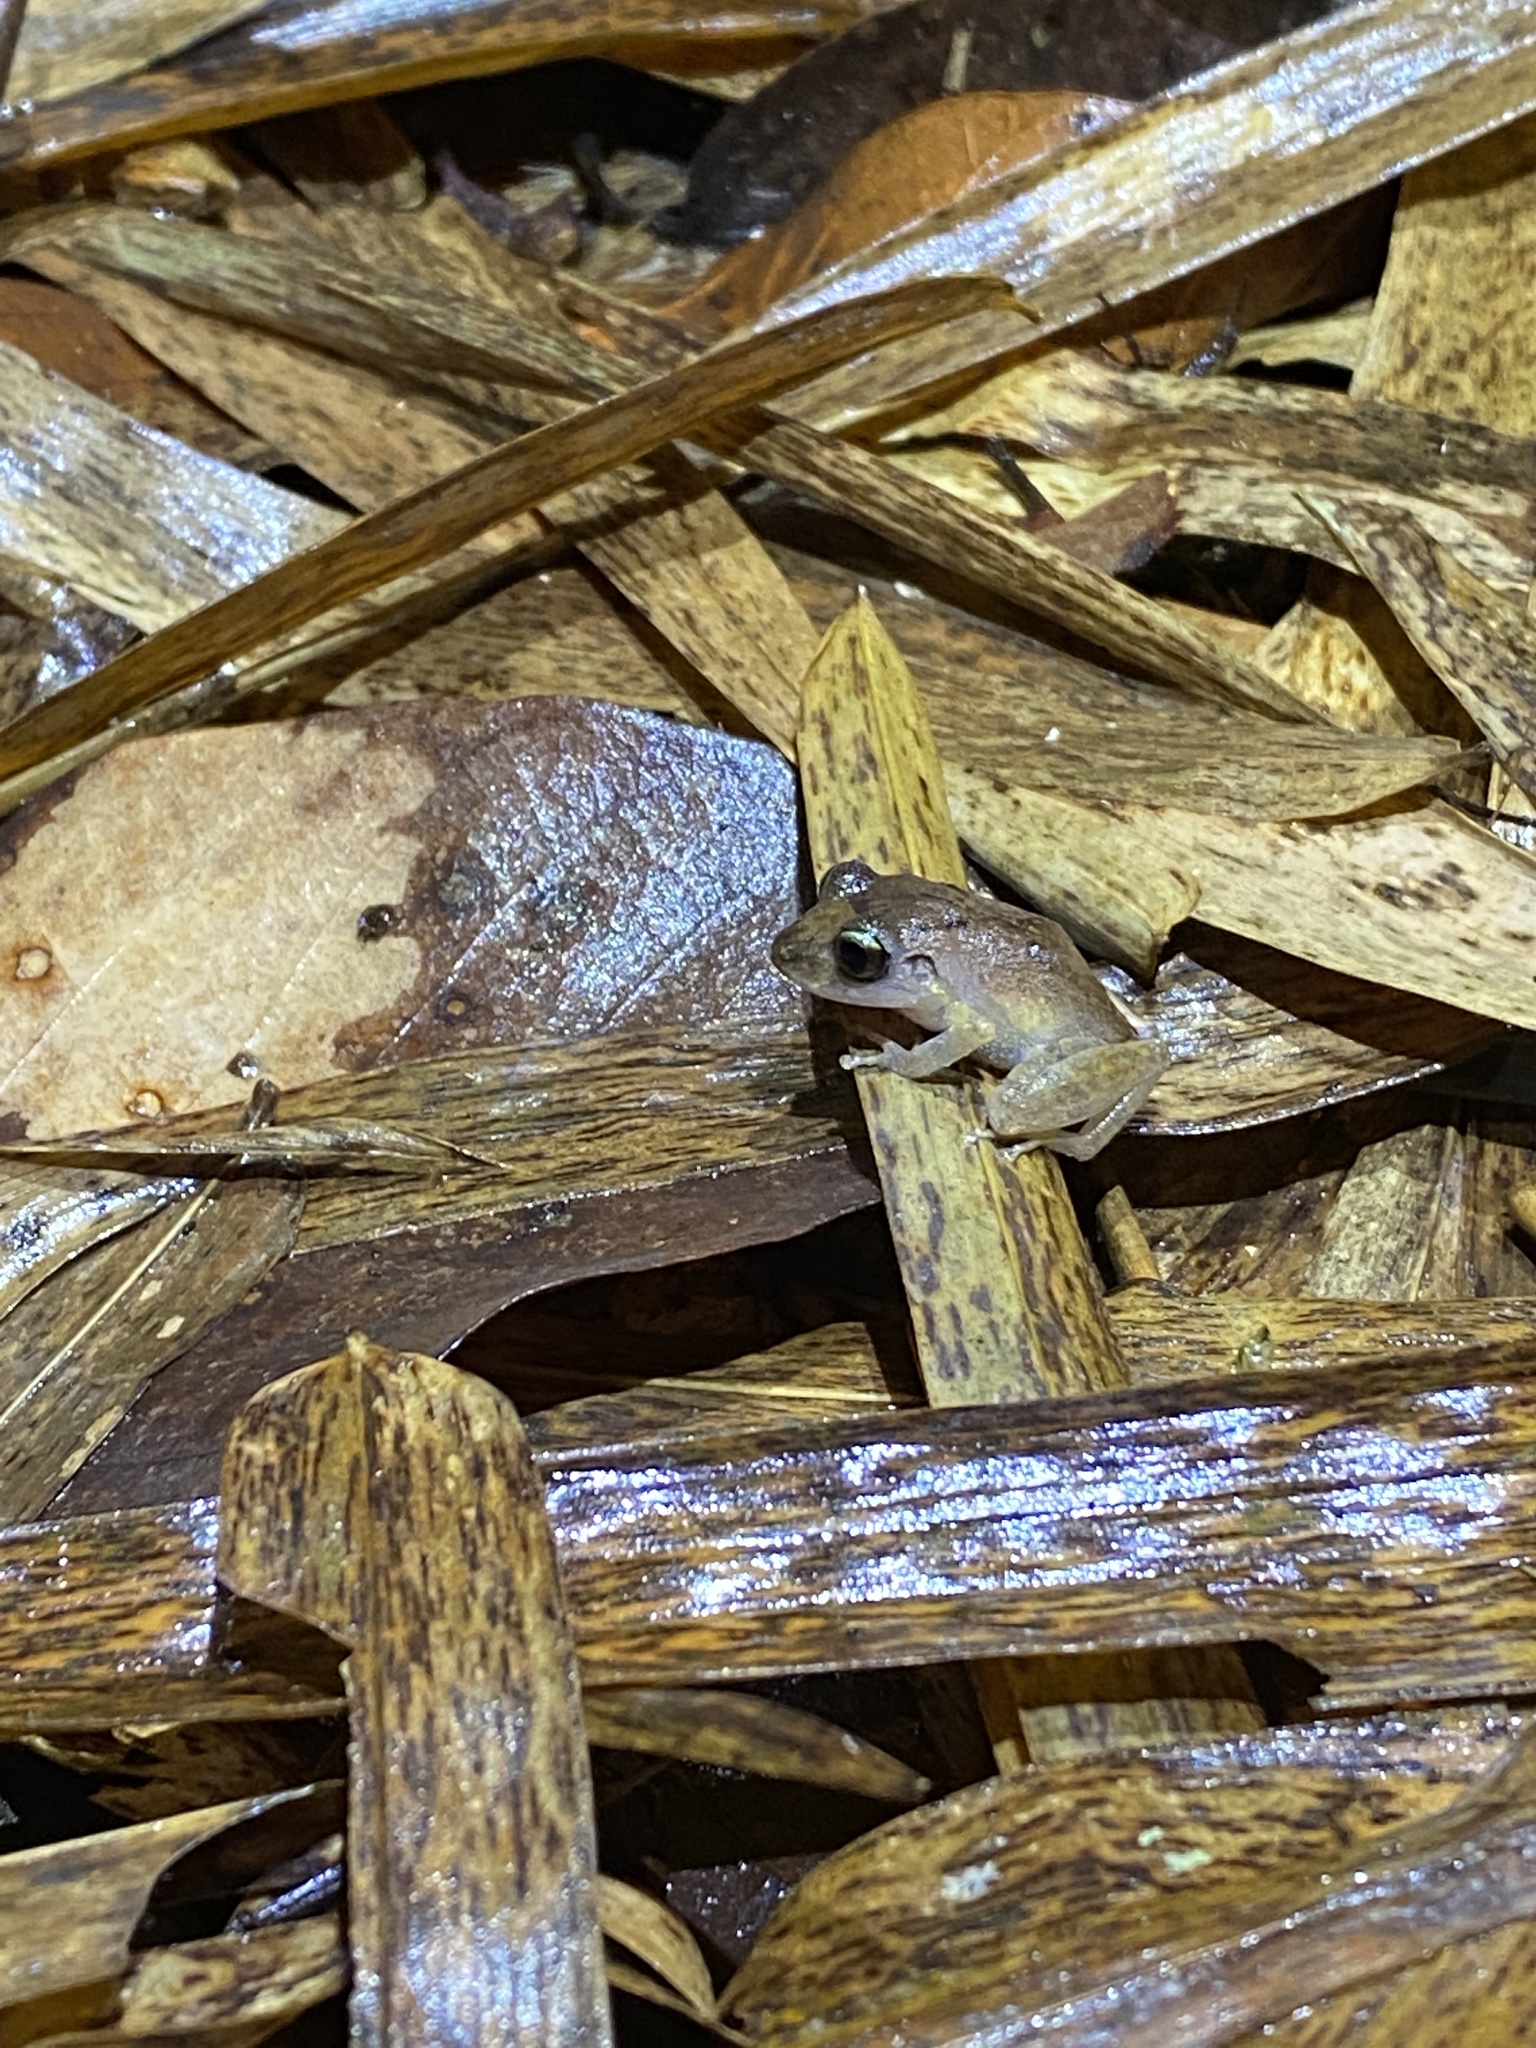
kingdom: Animalia
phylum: Chordata
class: Amphibia
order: Anura
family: Craugastoridae
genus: Pristimantis
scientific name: Pristimantis urichi
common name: Lesser antilles robber frog
